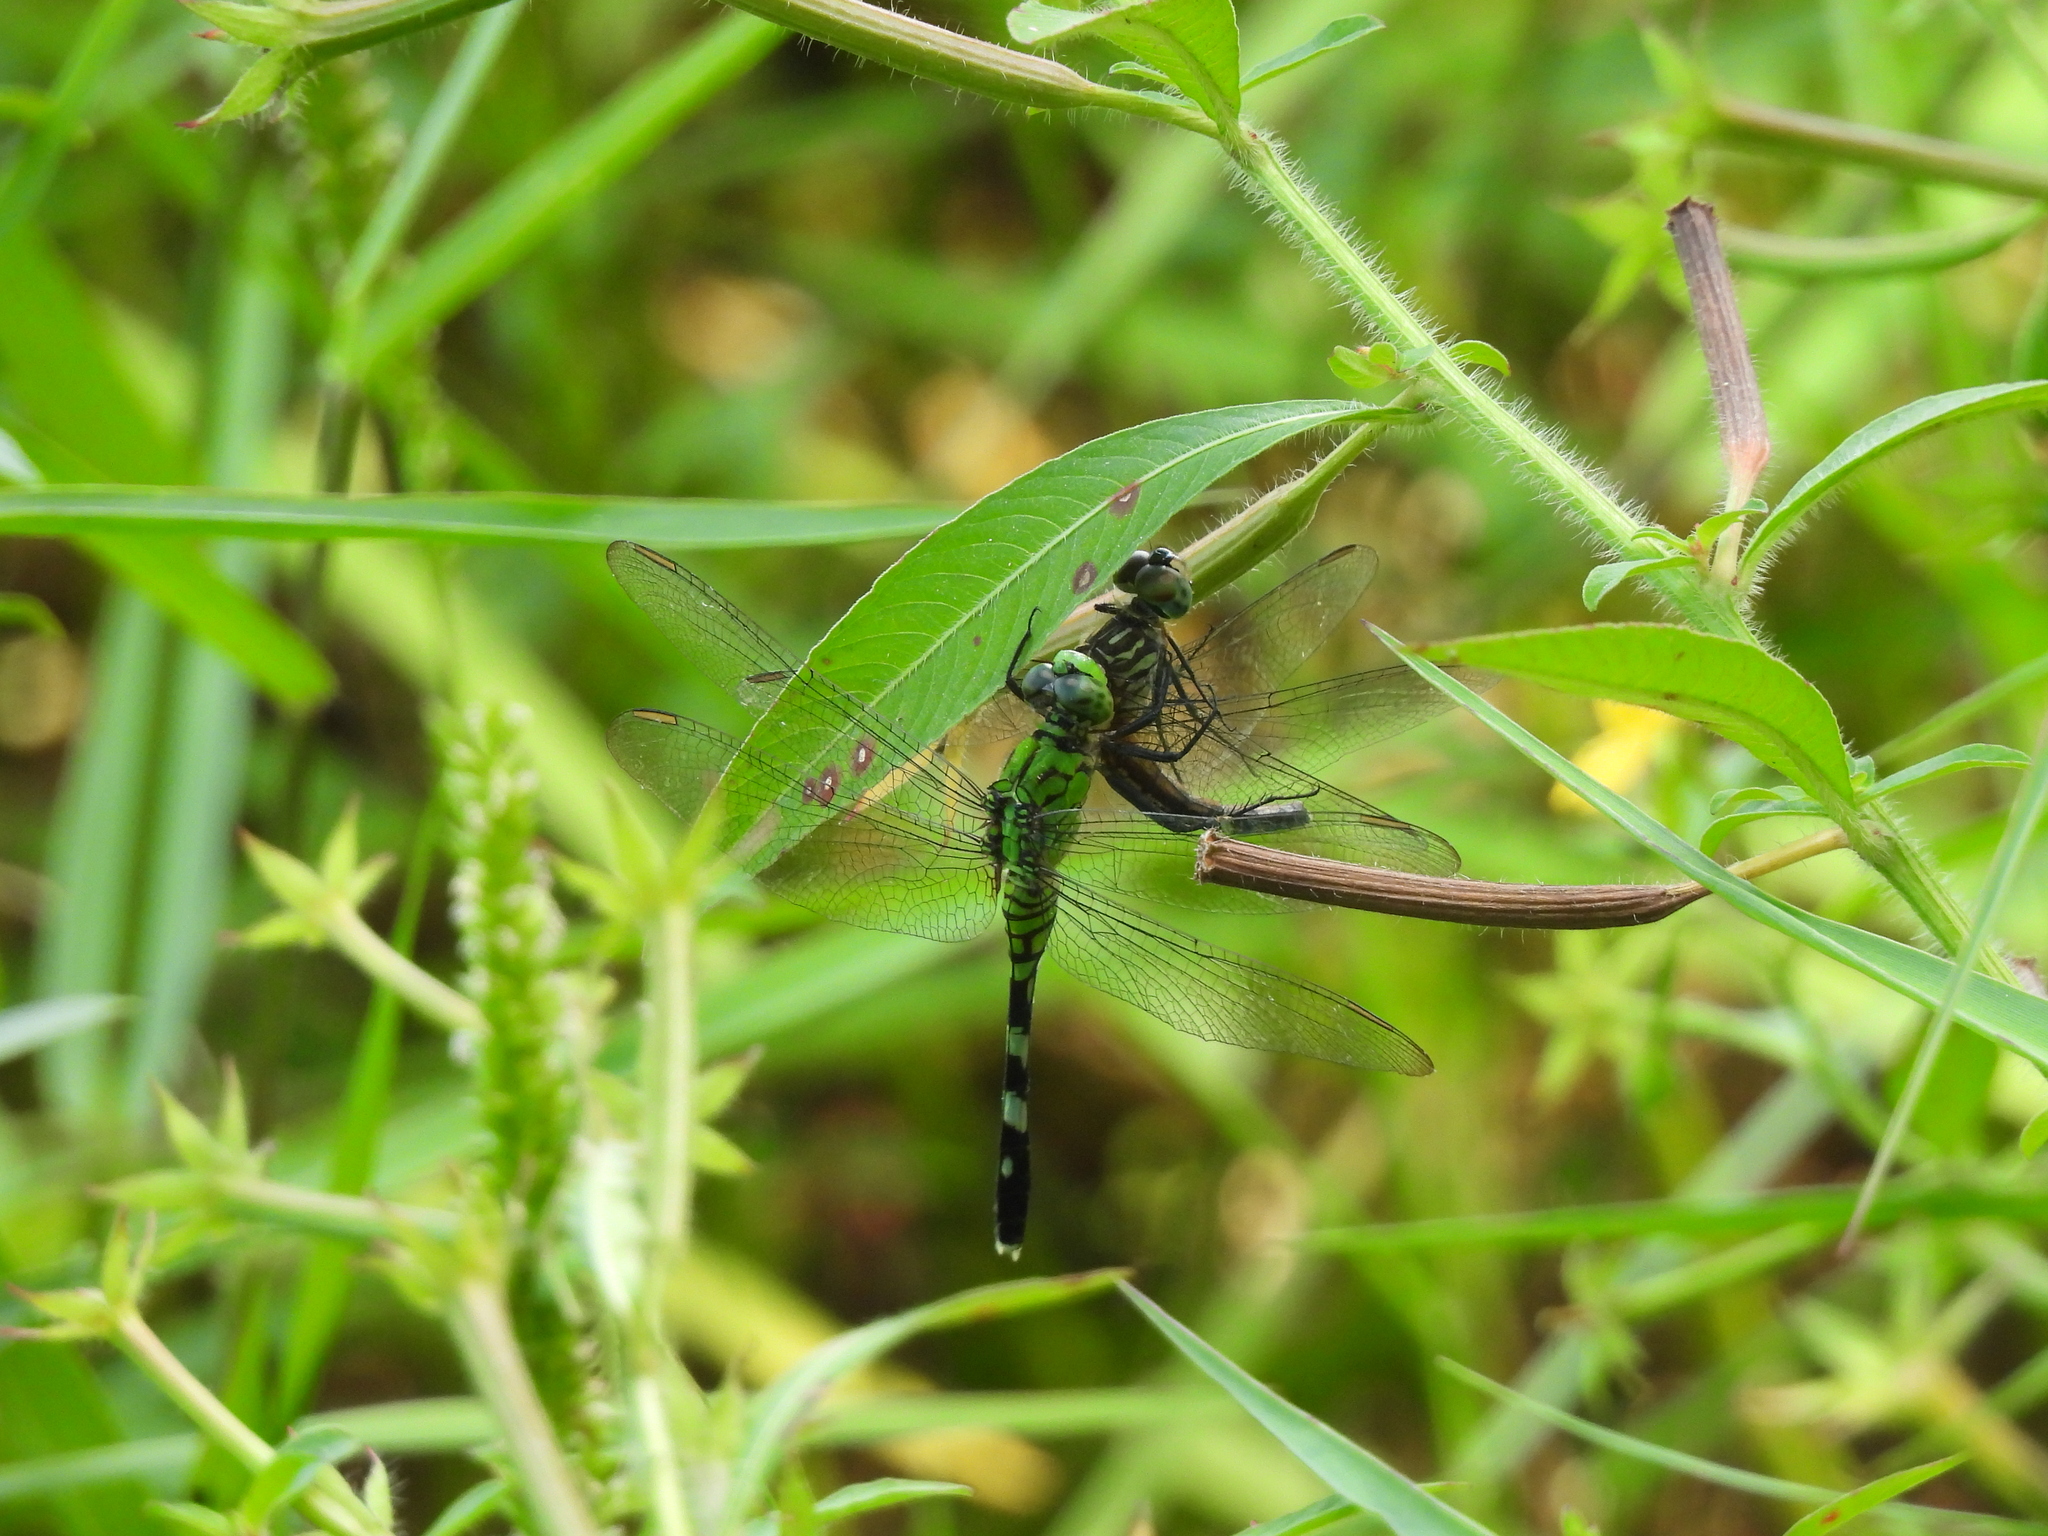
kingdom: Animalia
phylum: Arthropoda
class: Insecta
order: Odonata
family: Libellulidae
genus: Erythemis
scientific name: Erythemis simplicicollis
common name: Eastern pondhawk
